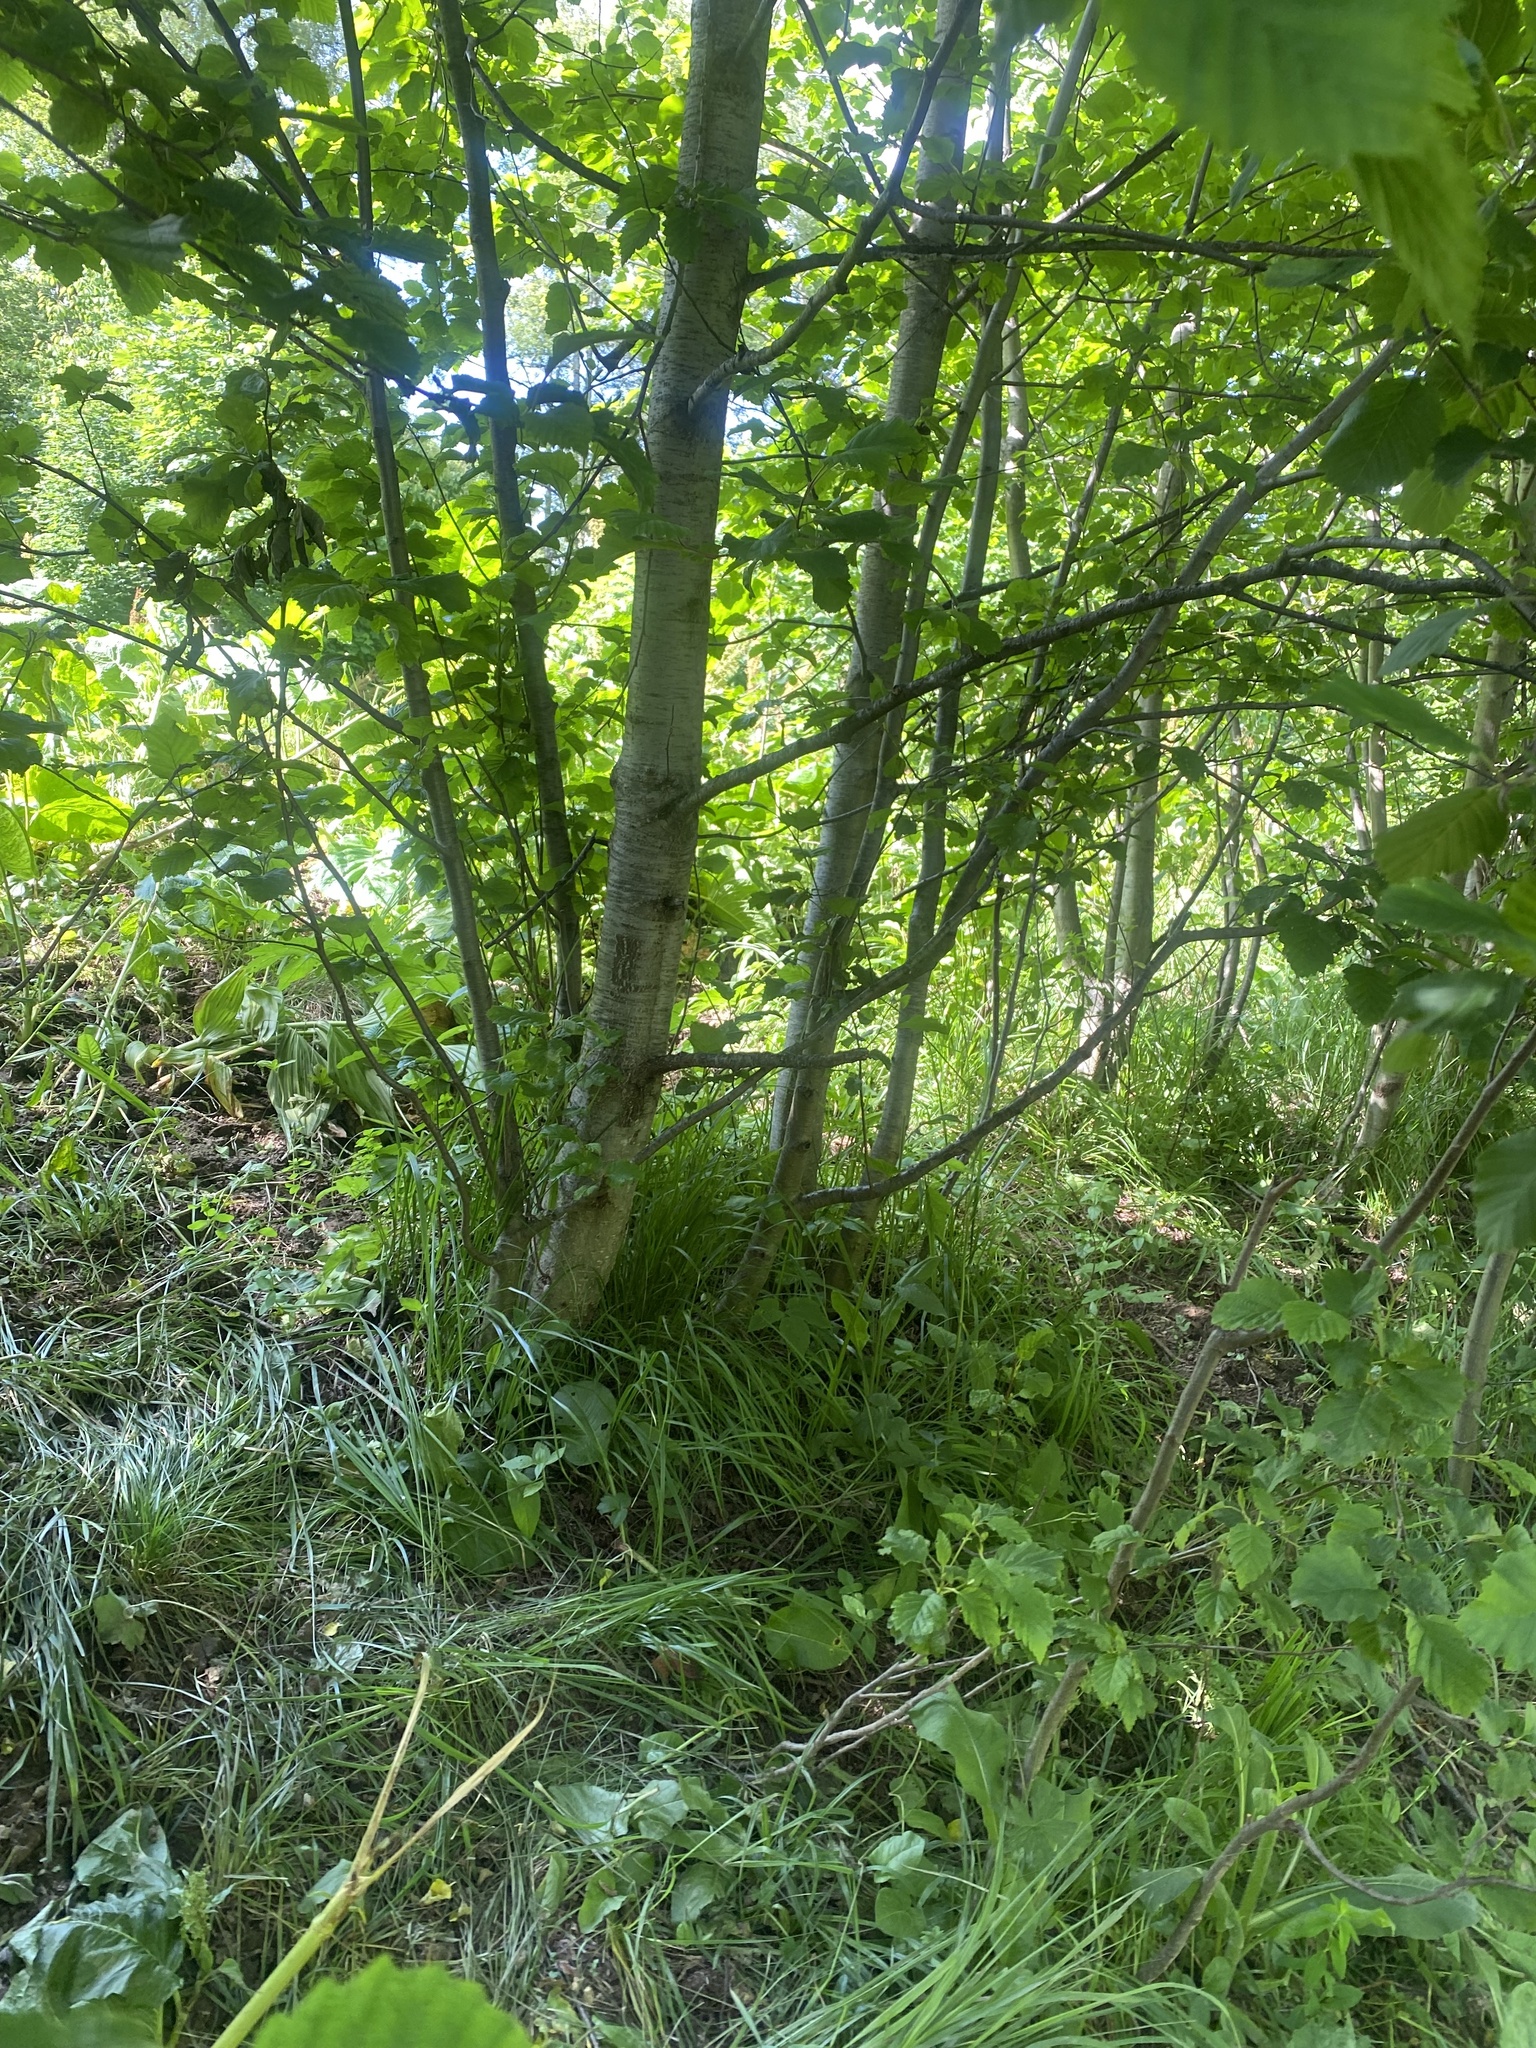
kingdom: Plantae
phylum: Tracheophyta
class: Magnoliopsida
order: Fagales
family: Betulaceae
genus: Alnus
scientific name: Alnus incana
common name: Grey alder
